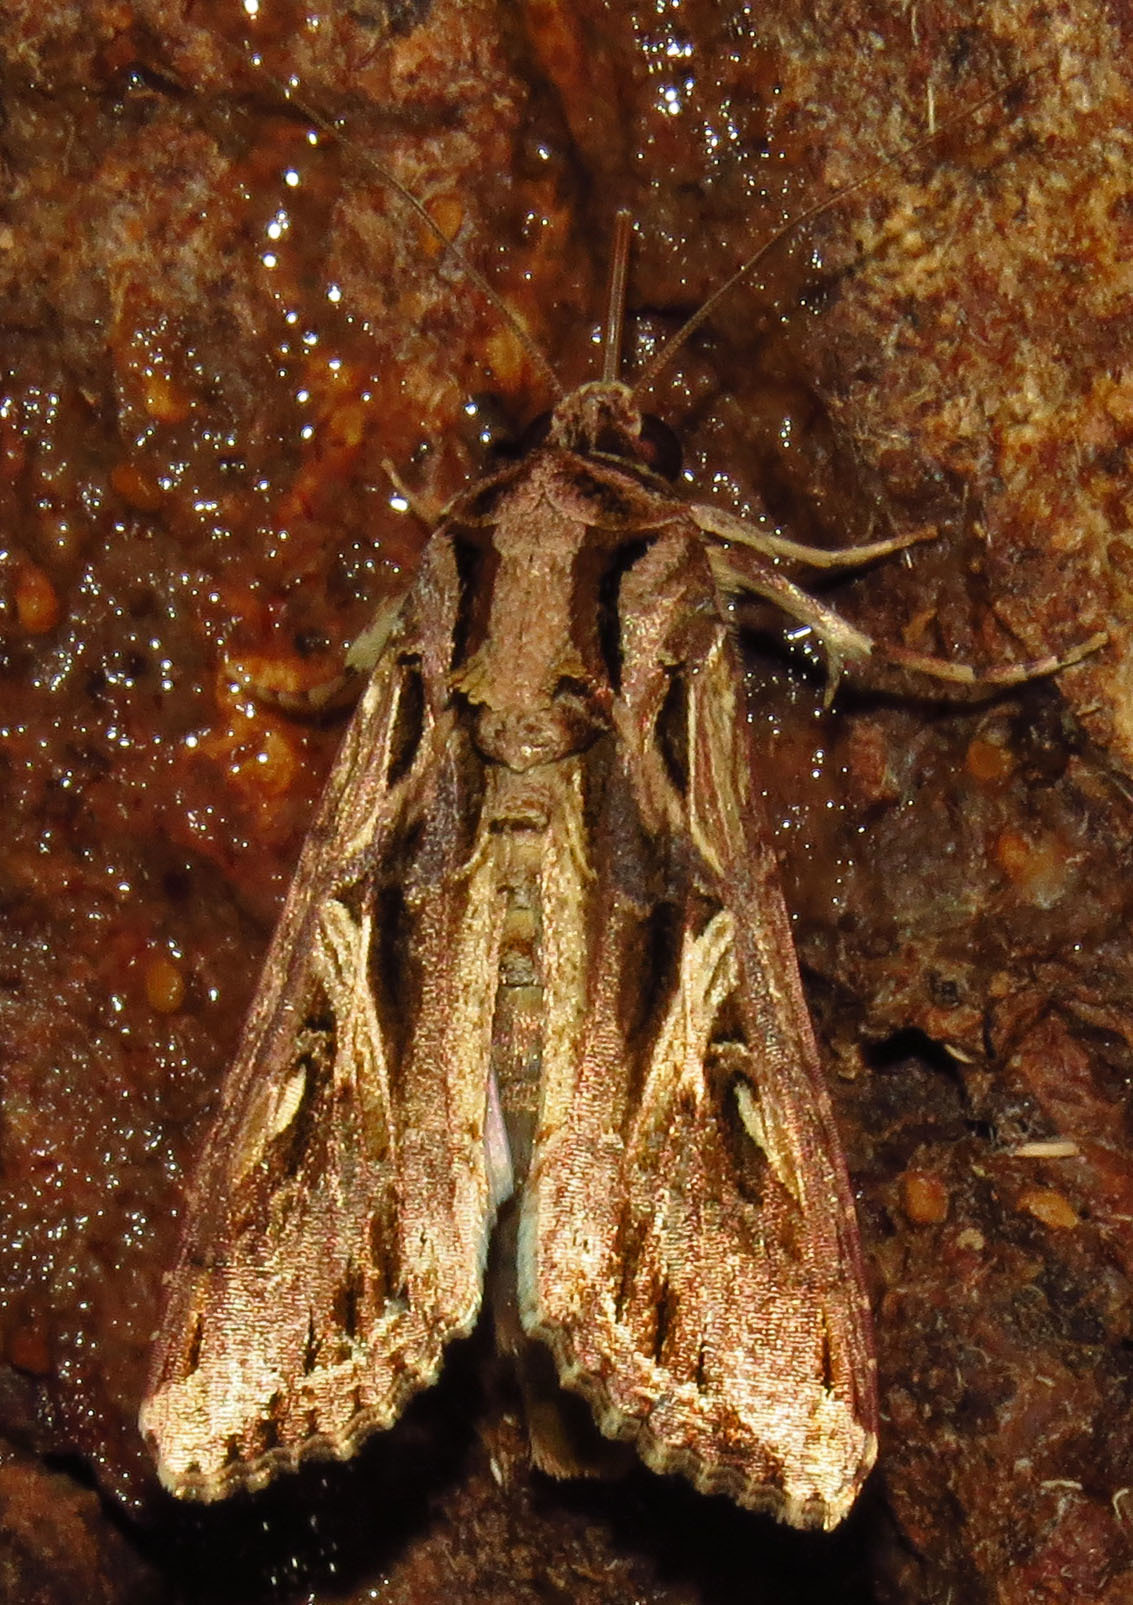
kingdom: Animalia
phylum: Arthropoda
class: Insecta
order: Lepidoptera
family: Noctuidae
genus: Spodoptera
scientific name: Spodoptera dolichos
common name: Sweetpotato armyworm
